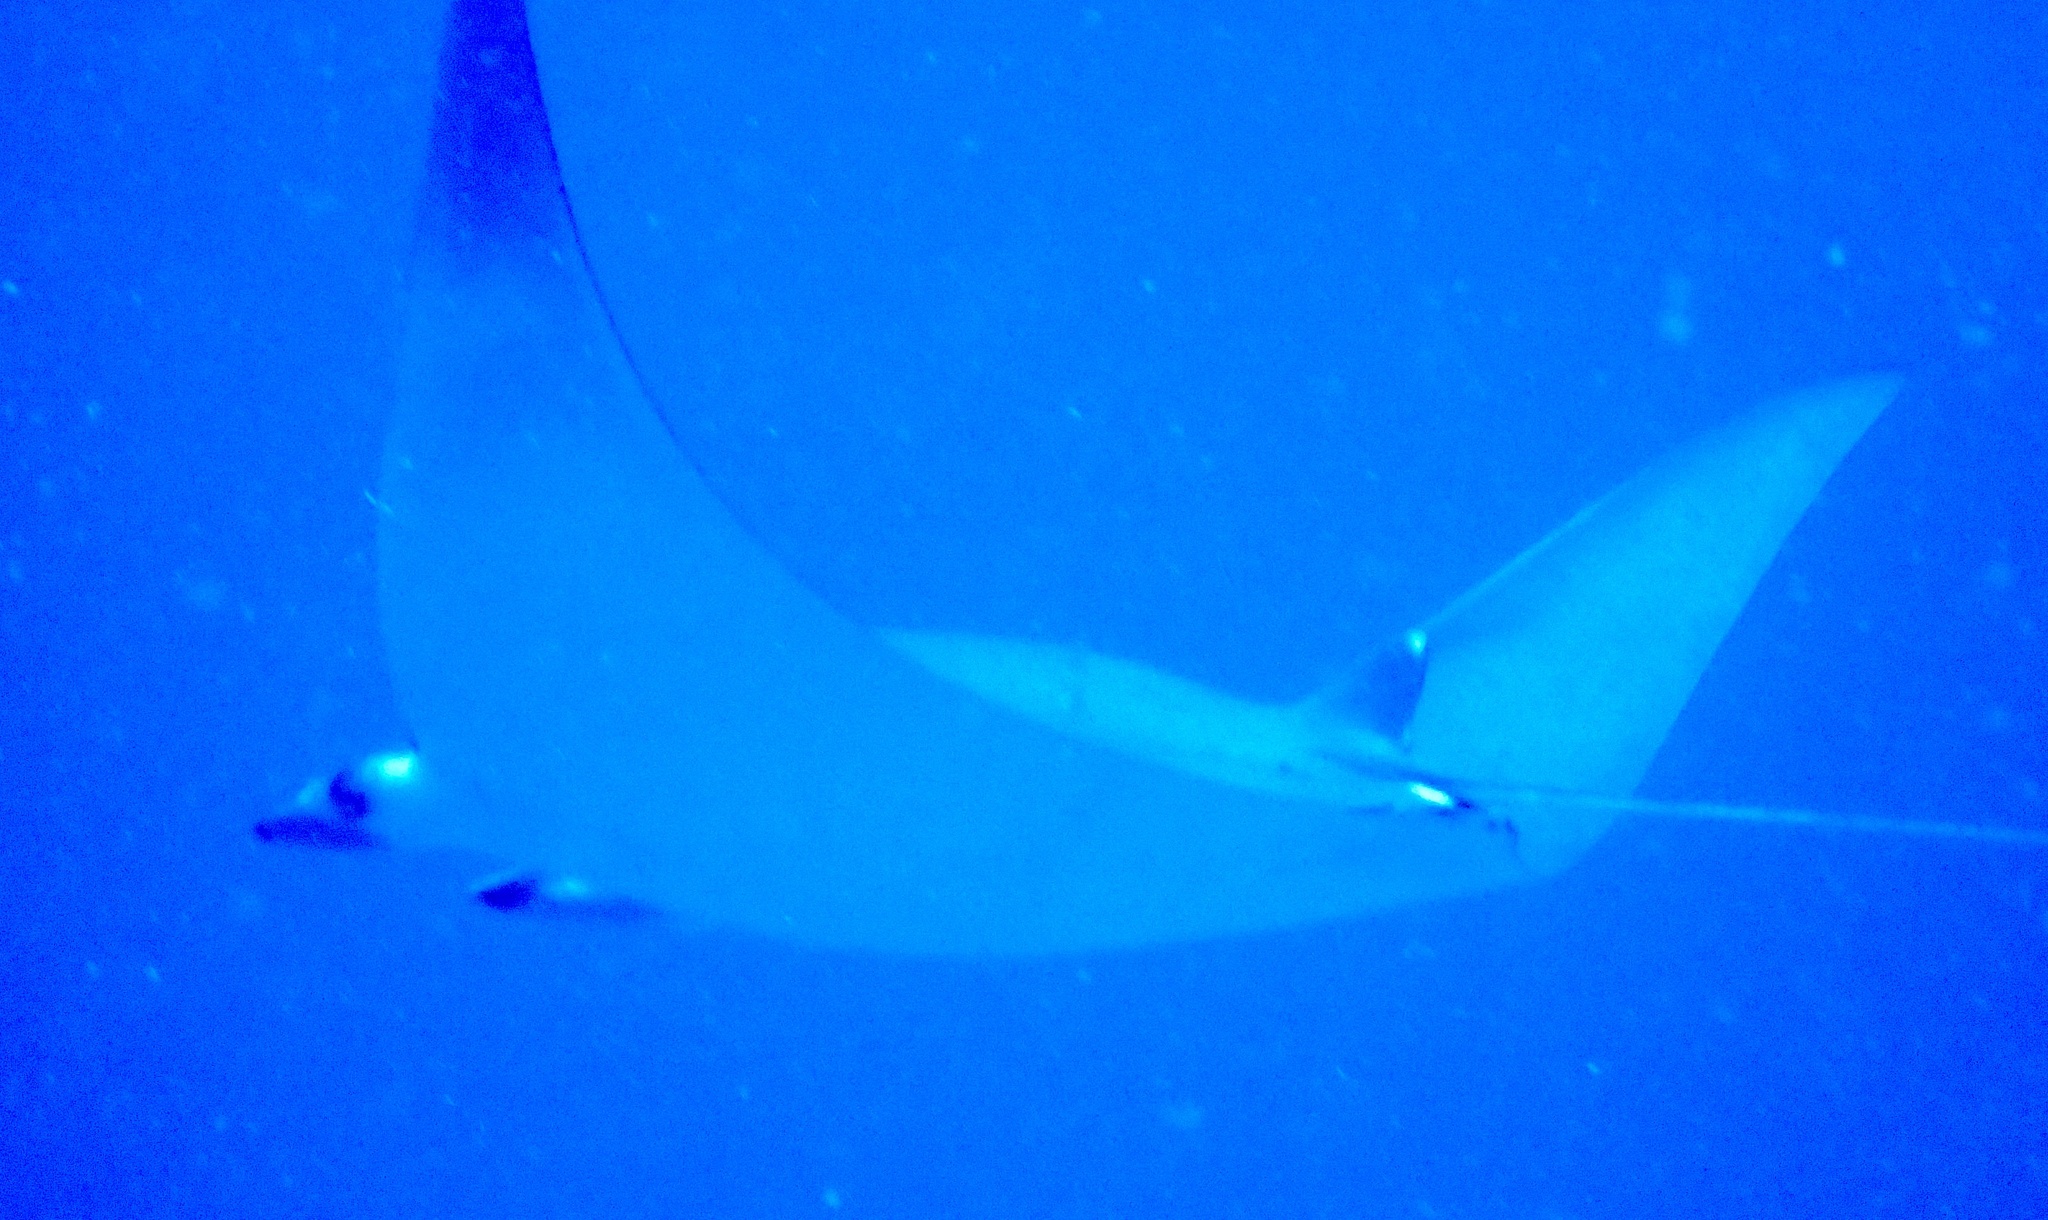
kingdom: Animalia
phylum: Chordata
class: Elasmobranchii
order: Myliobatiformes
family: Myliobatidae
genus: Mobula
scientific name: Mobula kuhlii
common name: Shortfin devil ray
